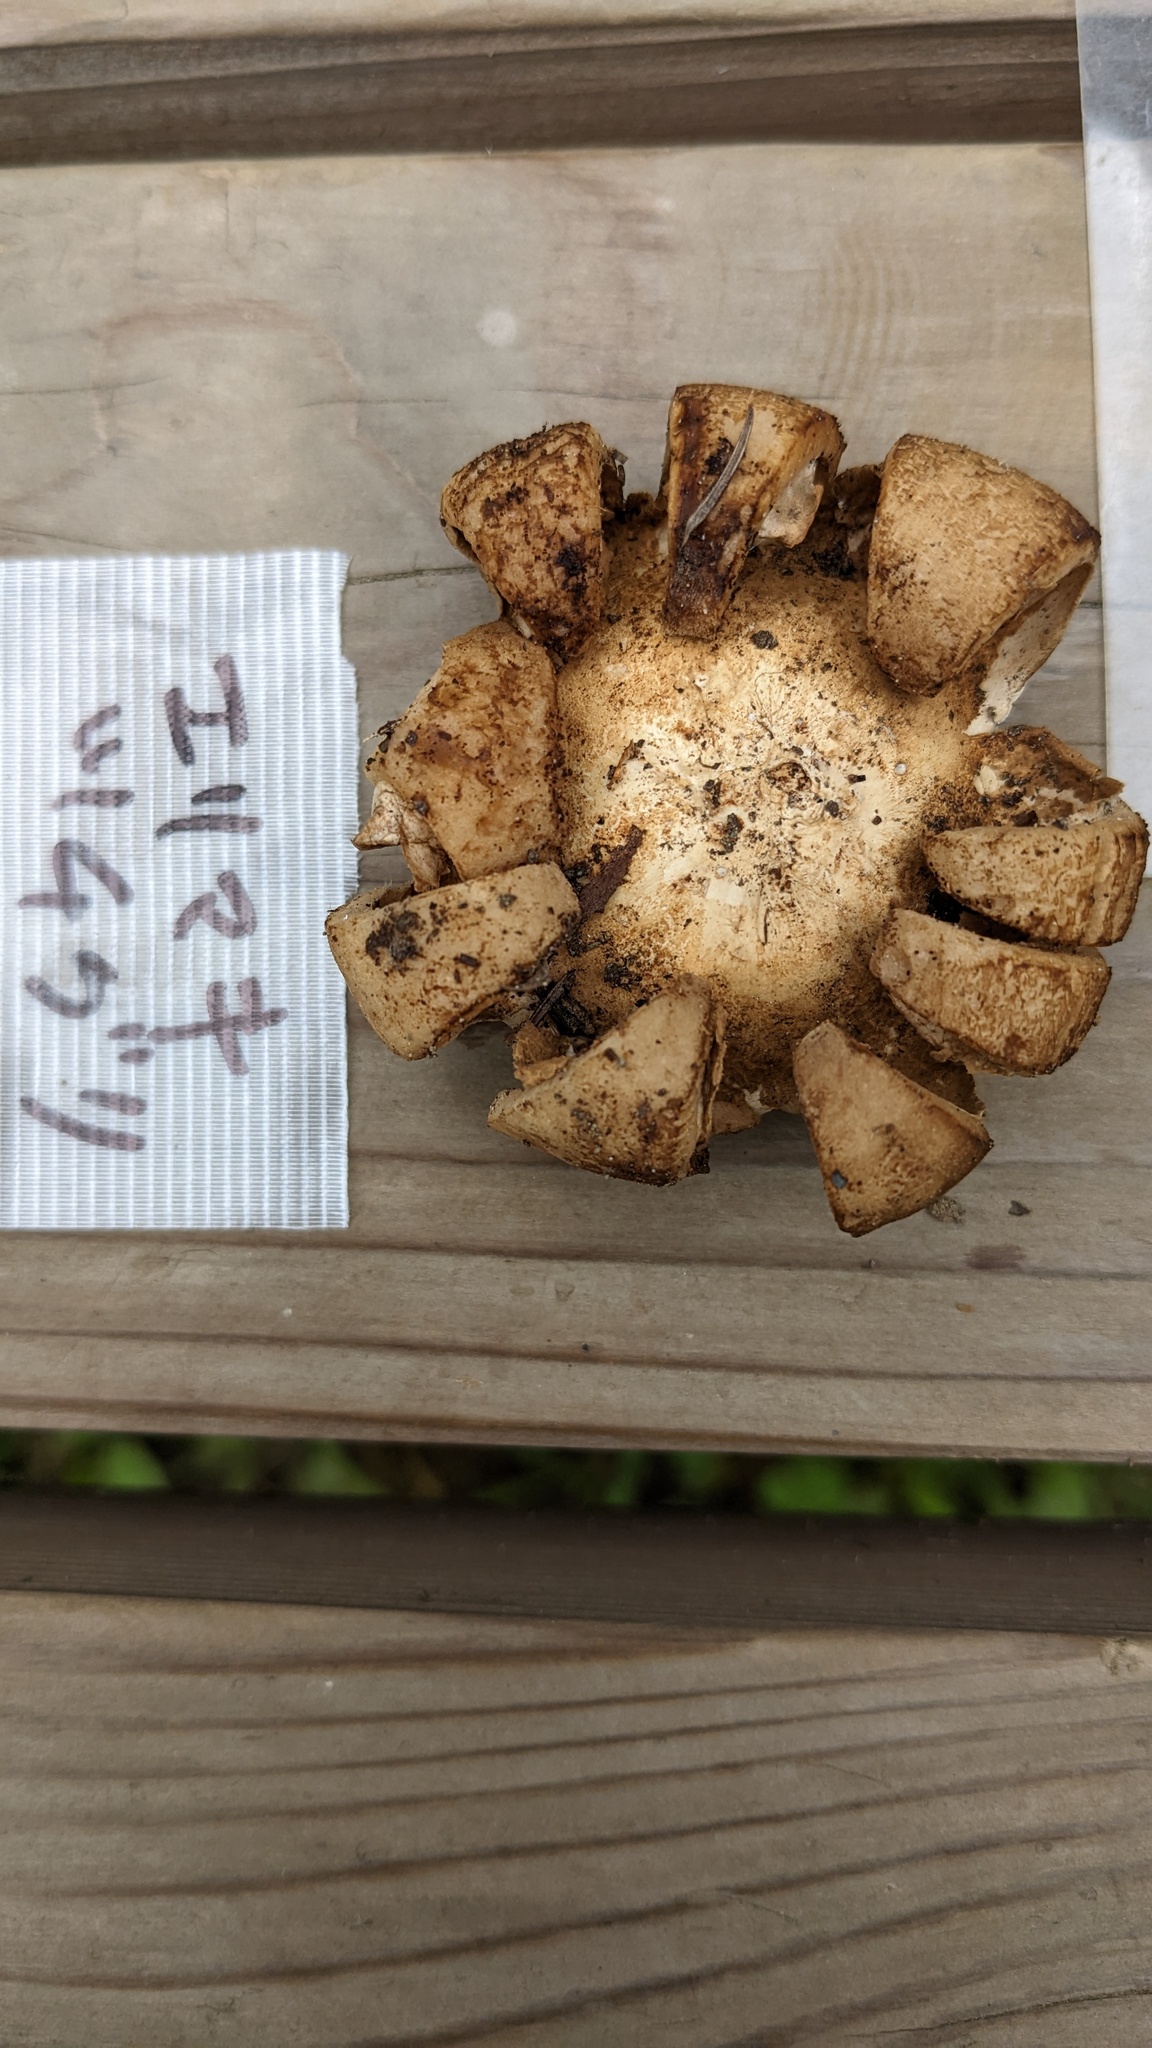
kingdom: Fungi
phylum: Basidiomycota
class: Agaricomycetes
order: Geastrales
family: Geastraceae
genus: Geastrum
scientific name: Geastrum triplex
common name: Collared earthstar
